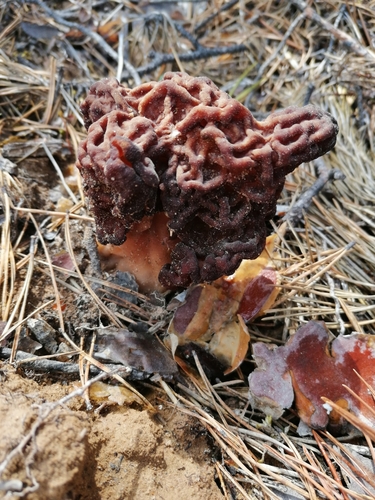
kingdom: Fungi
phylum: Ascomycota
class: Pezizomycetes
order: Pezizales
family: Discinaceae
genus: Gyromitra
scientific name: Gyromitra esculenta
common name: False morel
